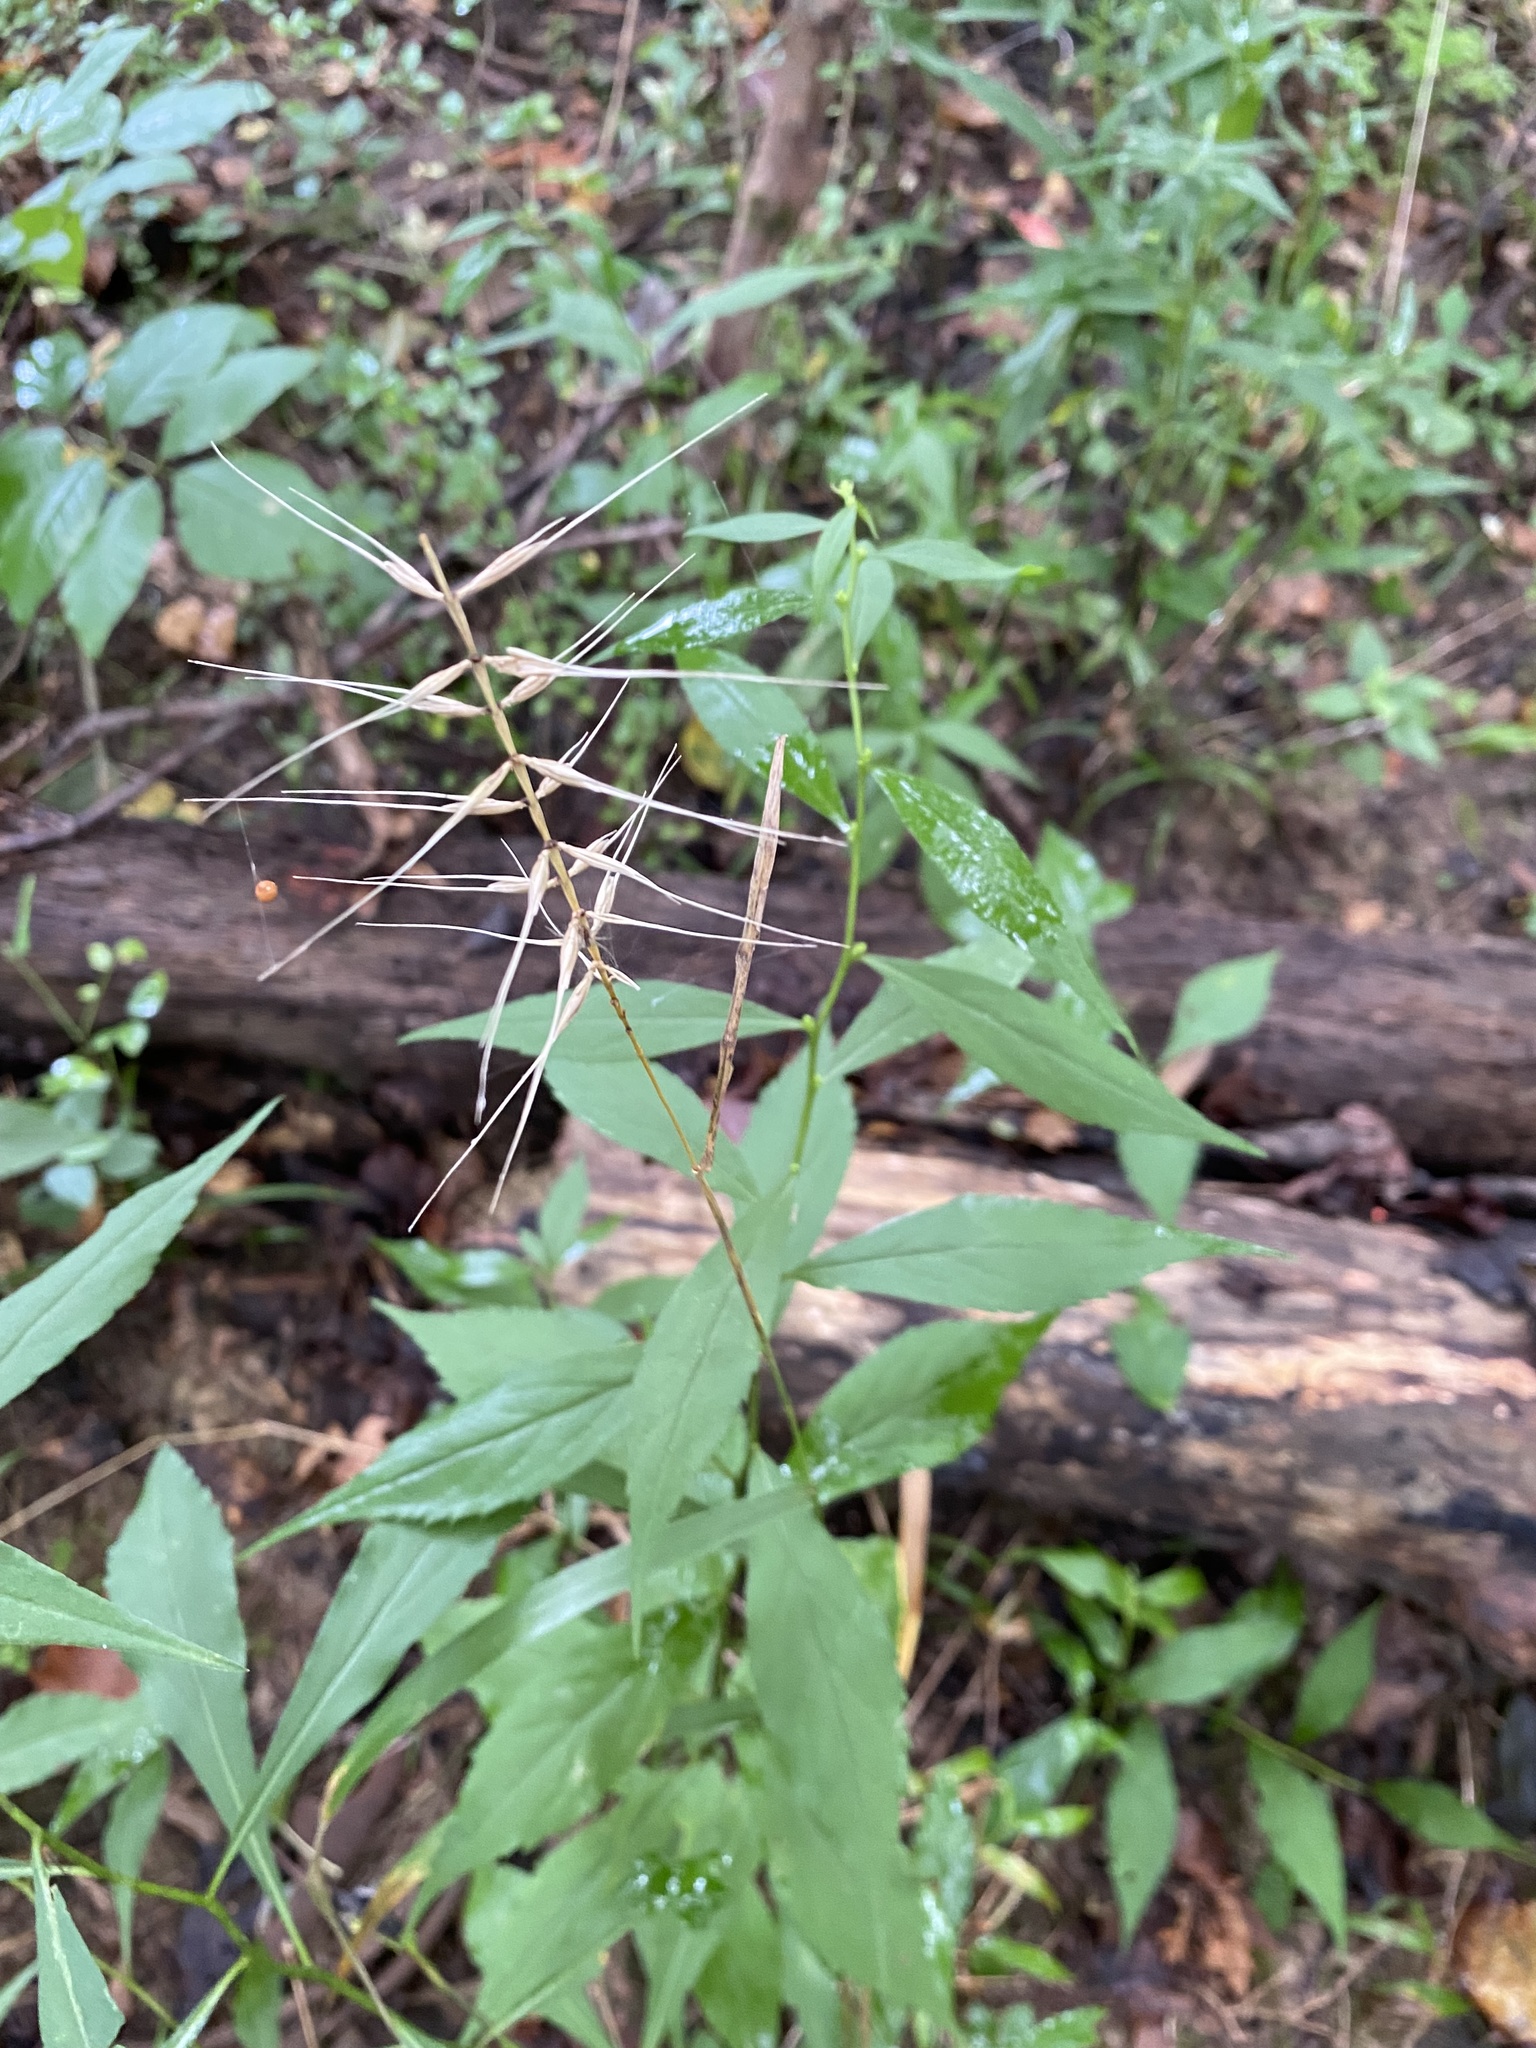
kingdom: Plantae
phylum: Tracheophyta
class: Liliopsida
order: Poales
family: Poaceae
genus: Elymus
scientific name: Elymus hystrix
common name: Bottlebrush grass
